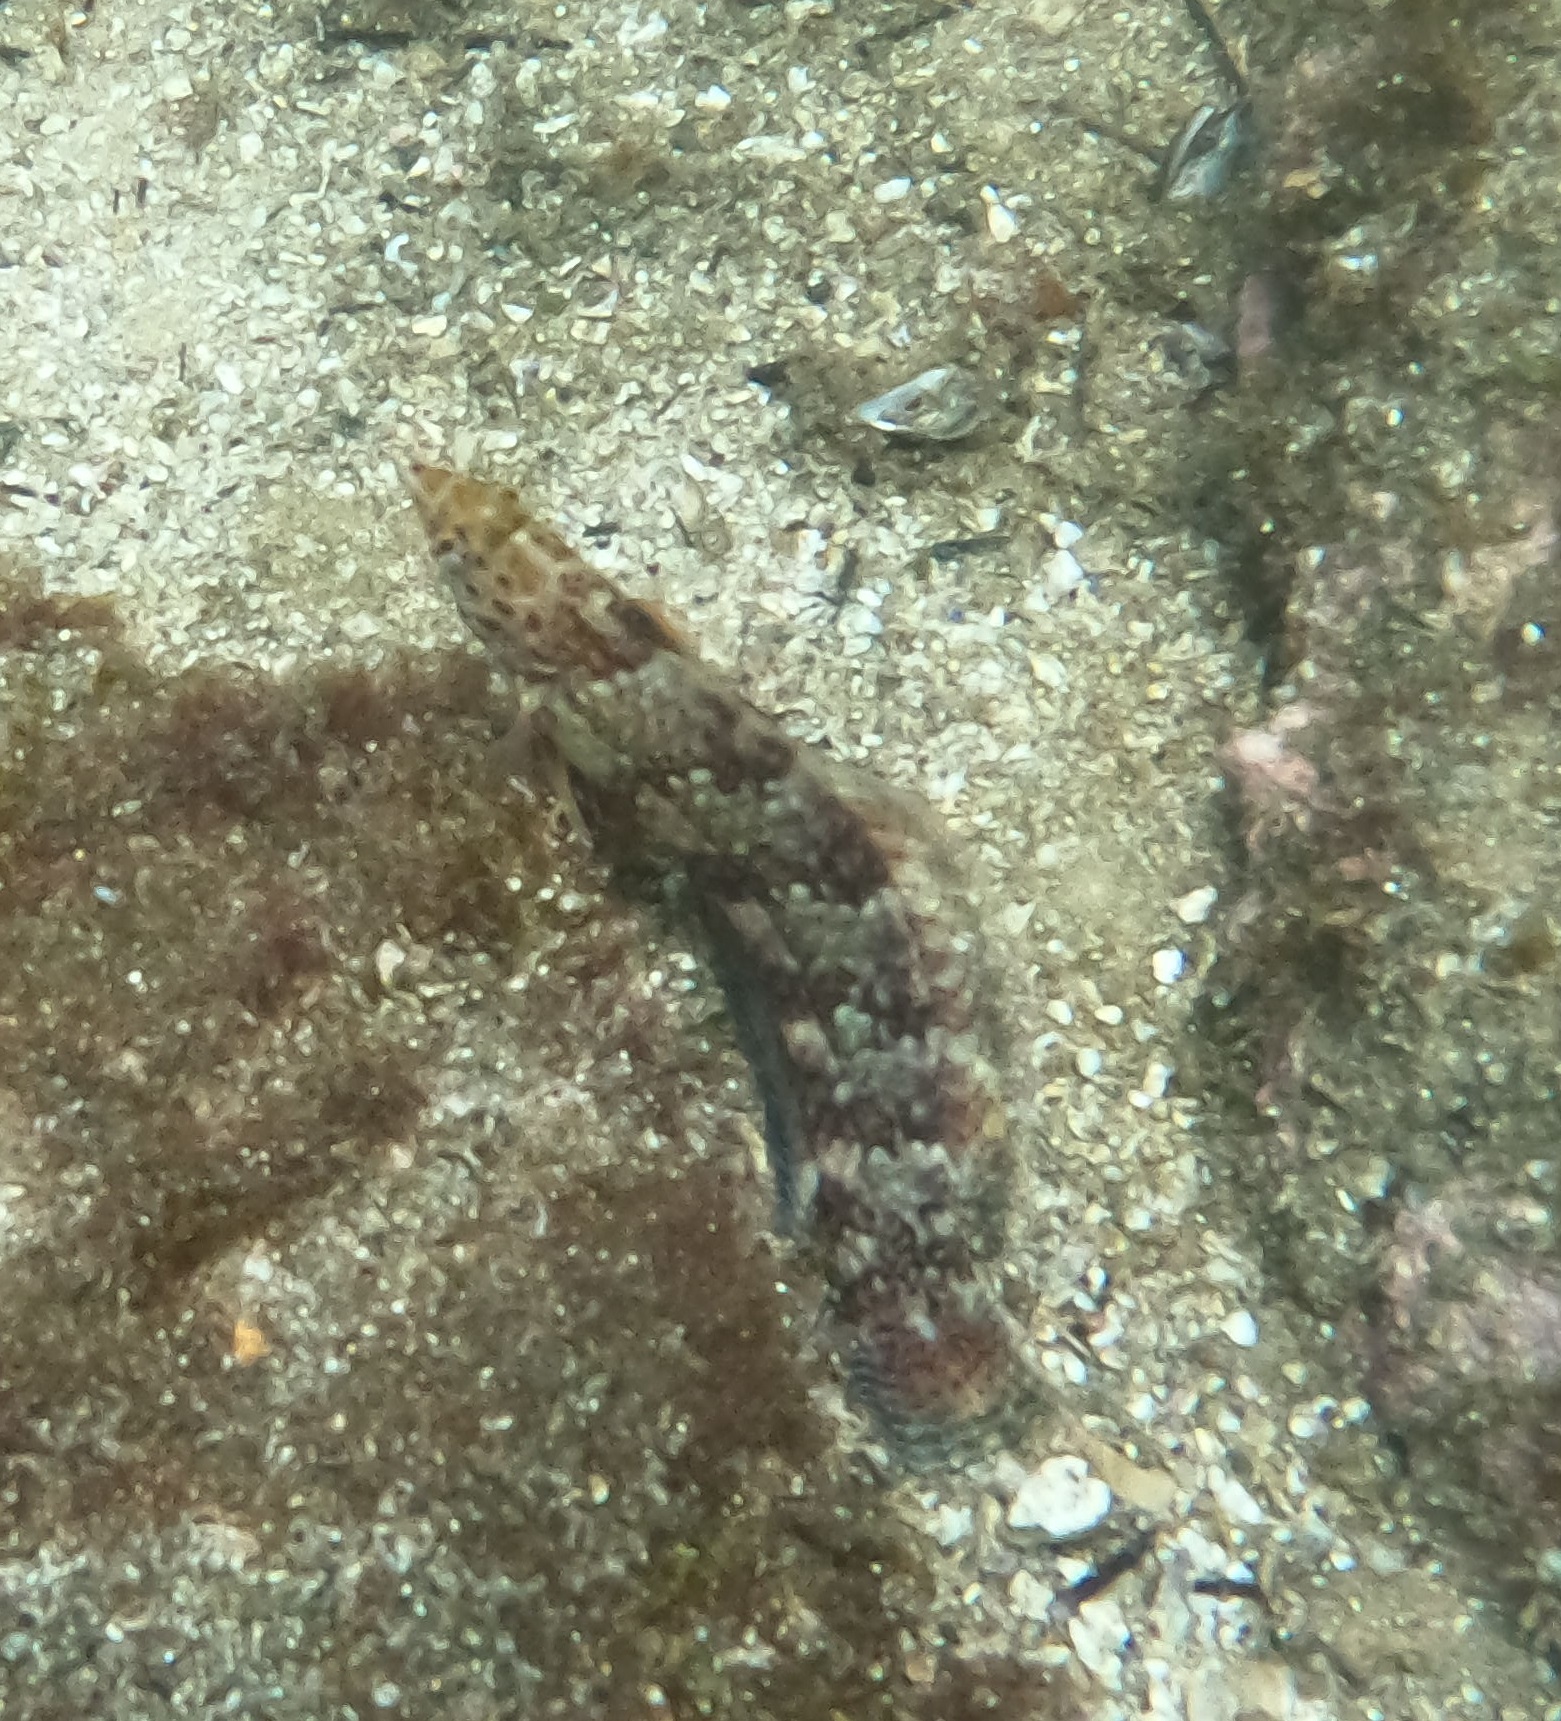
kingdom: Animalia
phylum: Chordata
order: Perciformes
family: Labridae
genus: Eupetrichthys
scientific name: Eupetrichthys angustipes
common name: Snake-skin wrasse
